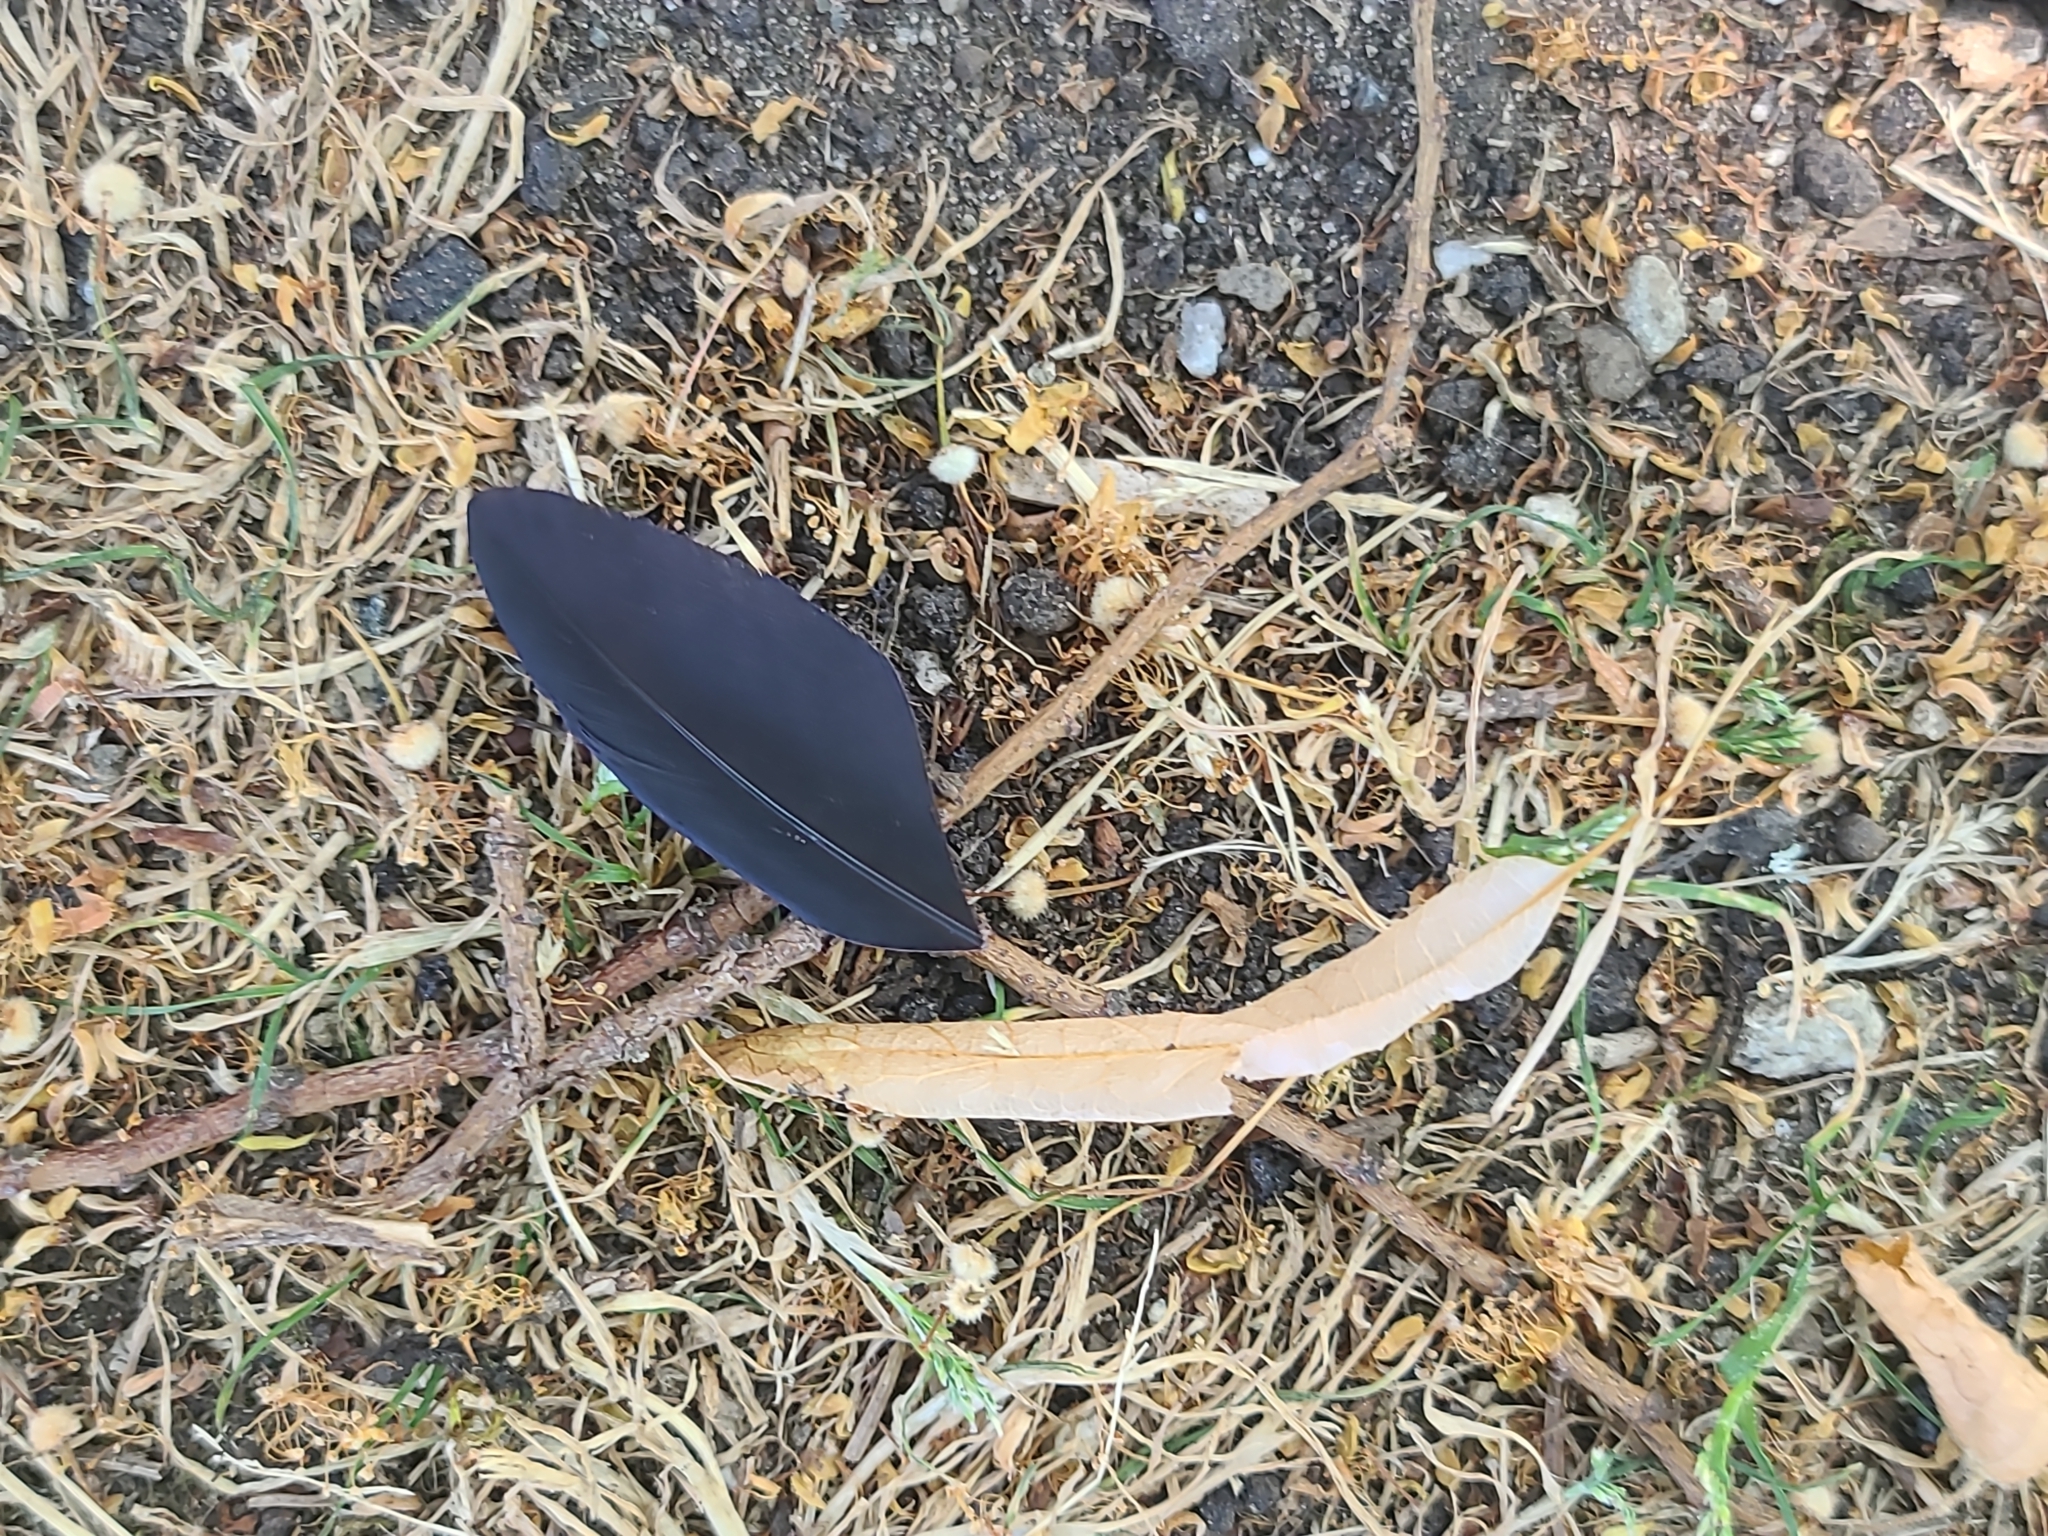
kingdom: Animalia
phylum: Chordata
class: Aves
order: Passeriformes
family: Corvidae
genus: Corvus
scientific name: Corvus brachyrhynchos
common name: American crow
